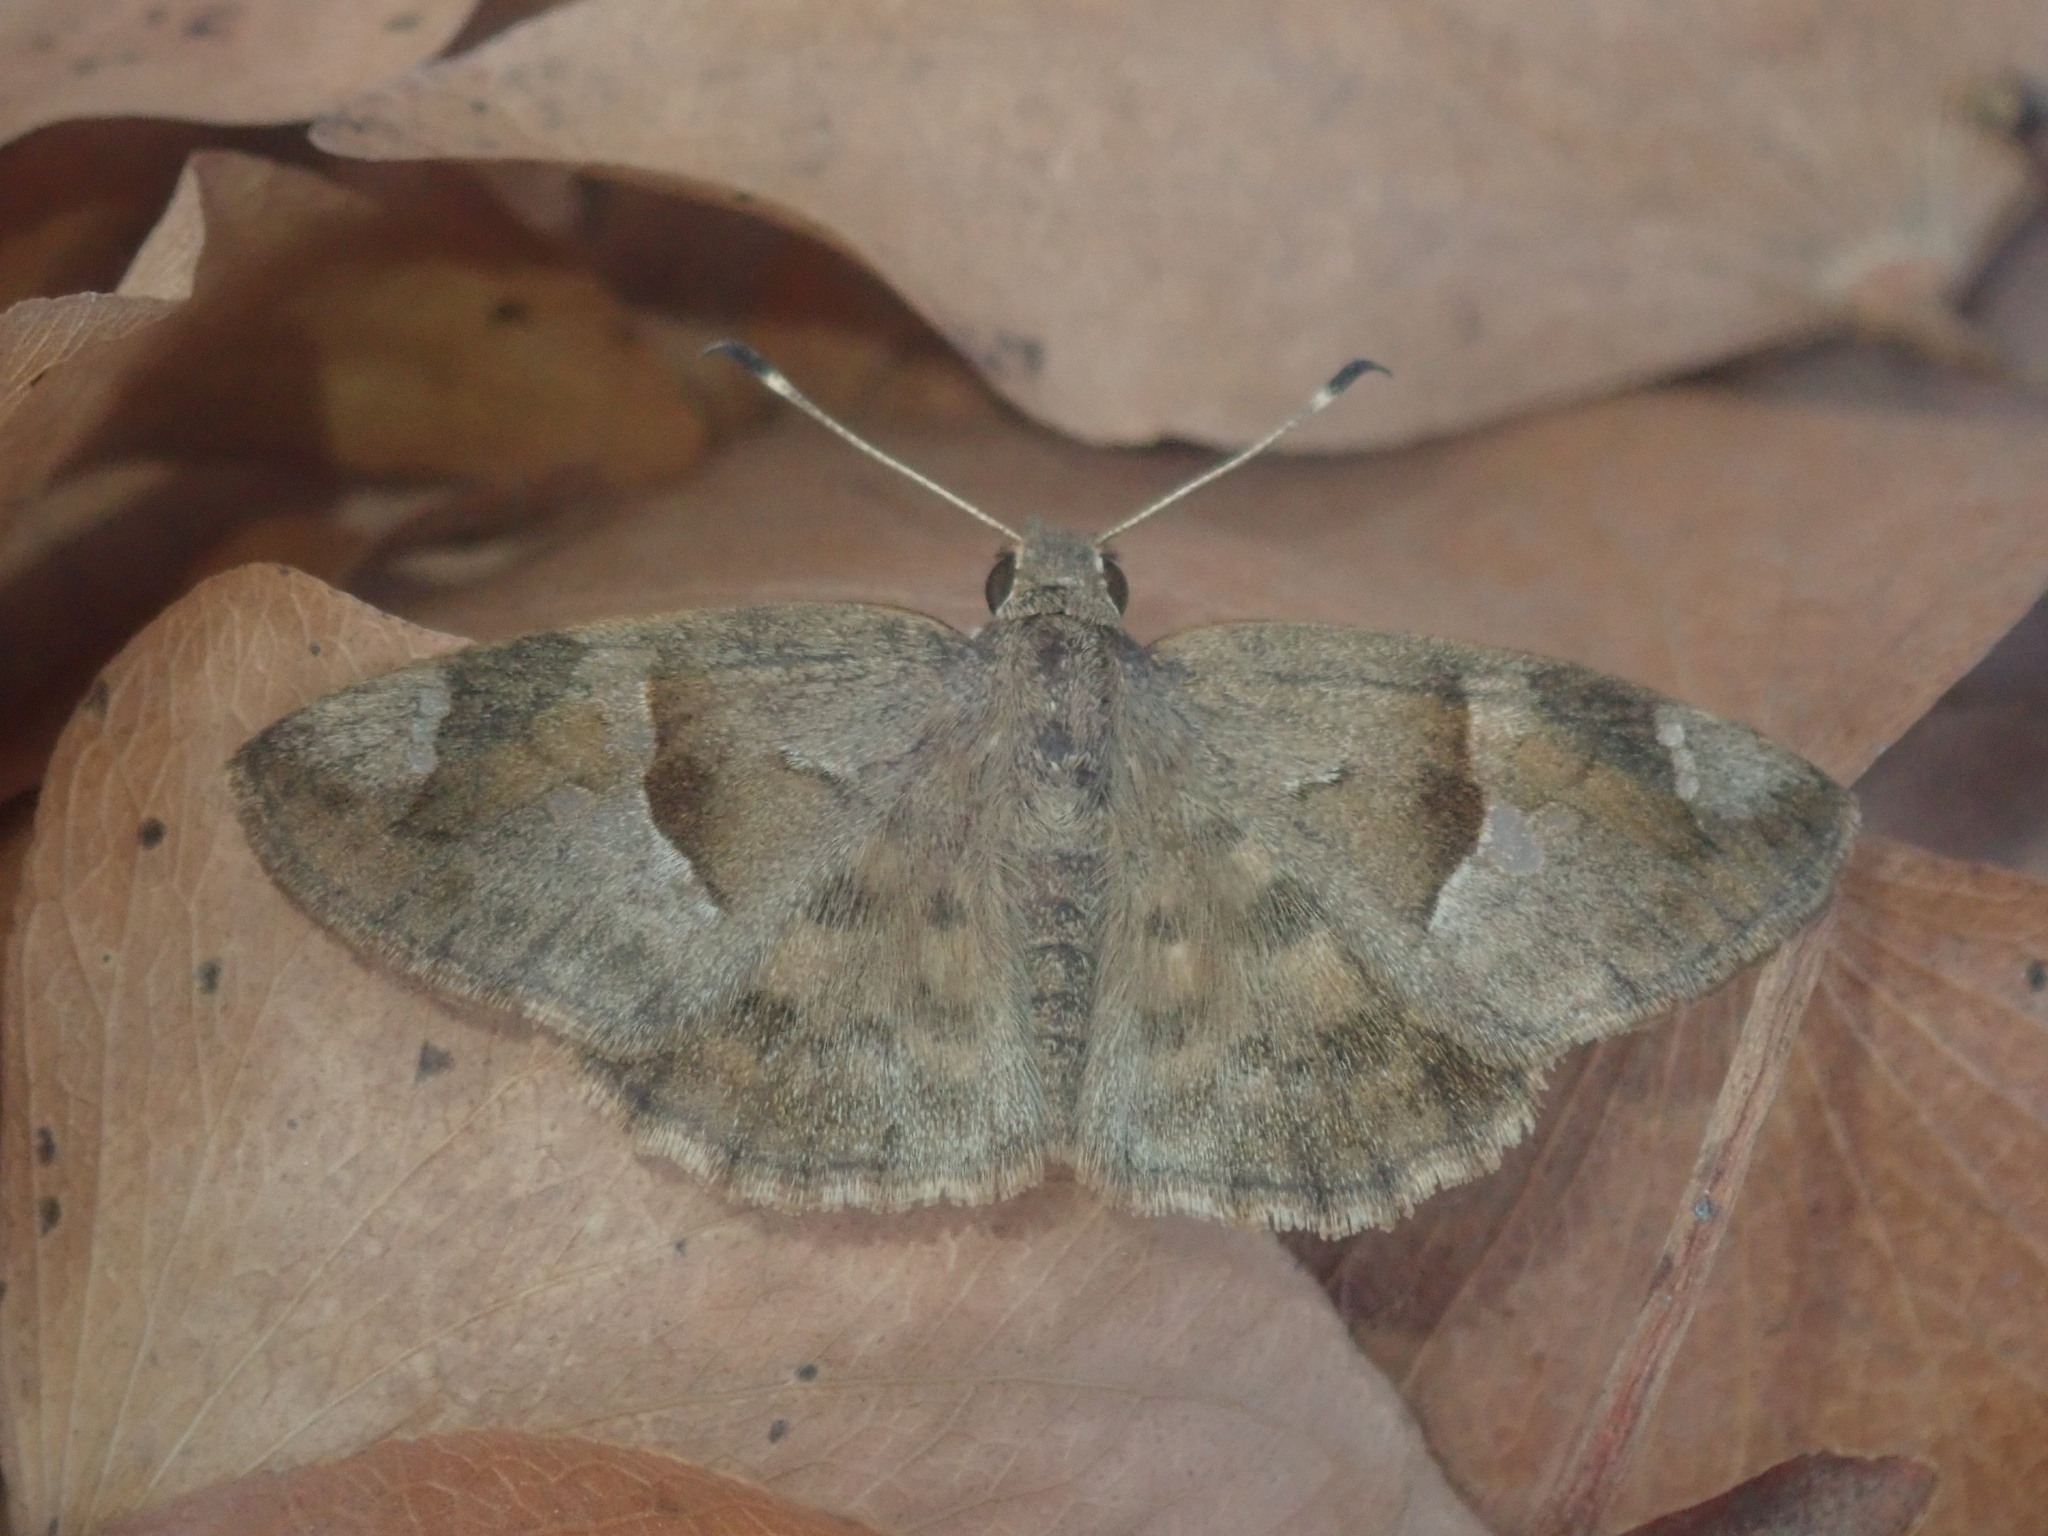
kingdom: Animalia
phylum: Arthropoda
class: Insecta
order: Lepidoptera
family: Hesperiidae
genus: Sarangesa
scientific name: Sarangesa phidyle
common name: Small elfin
